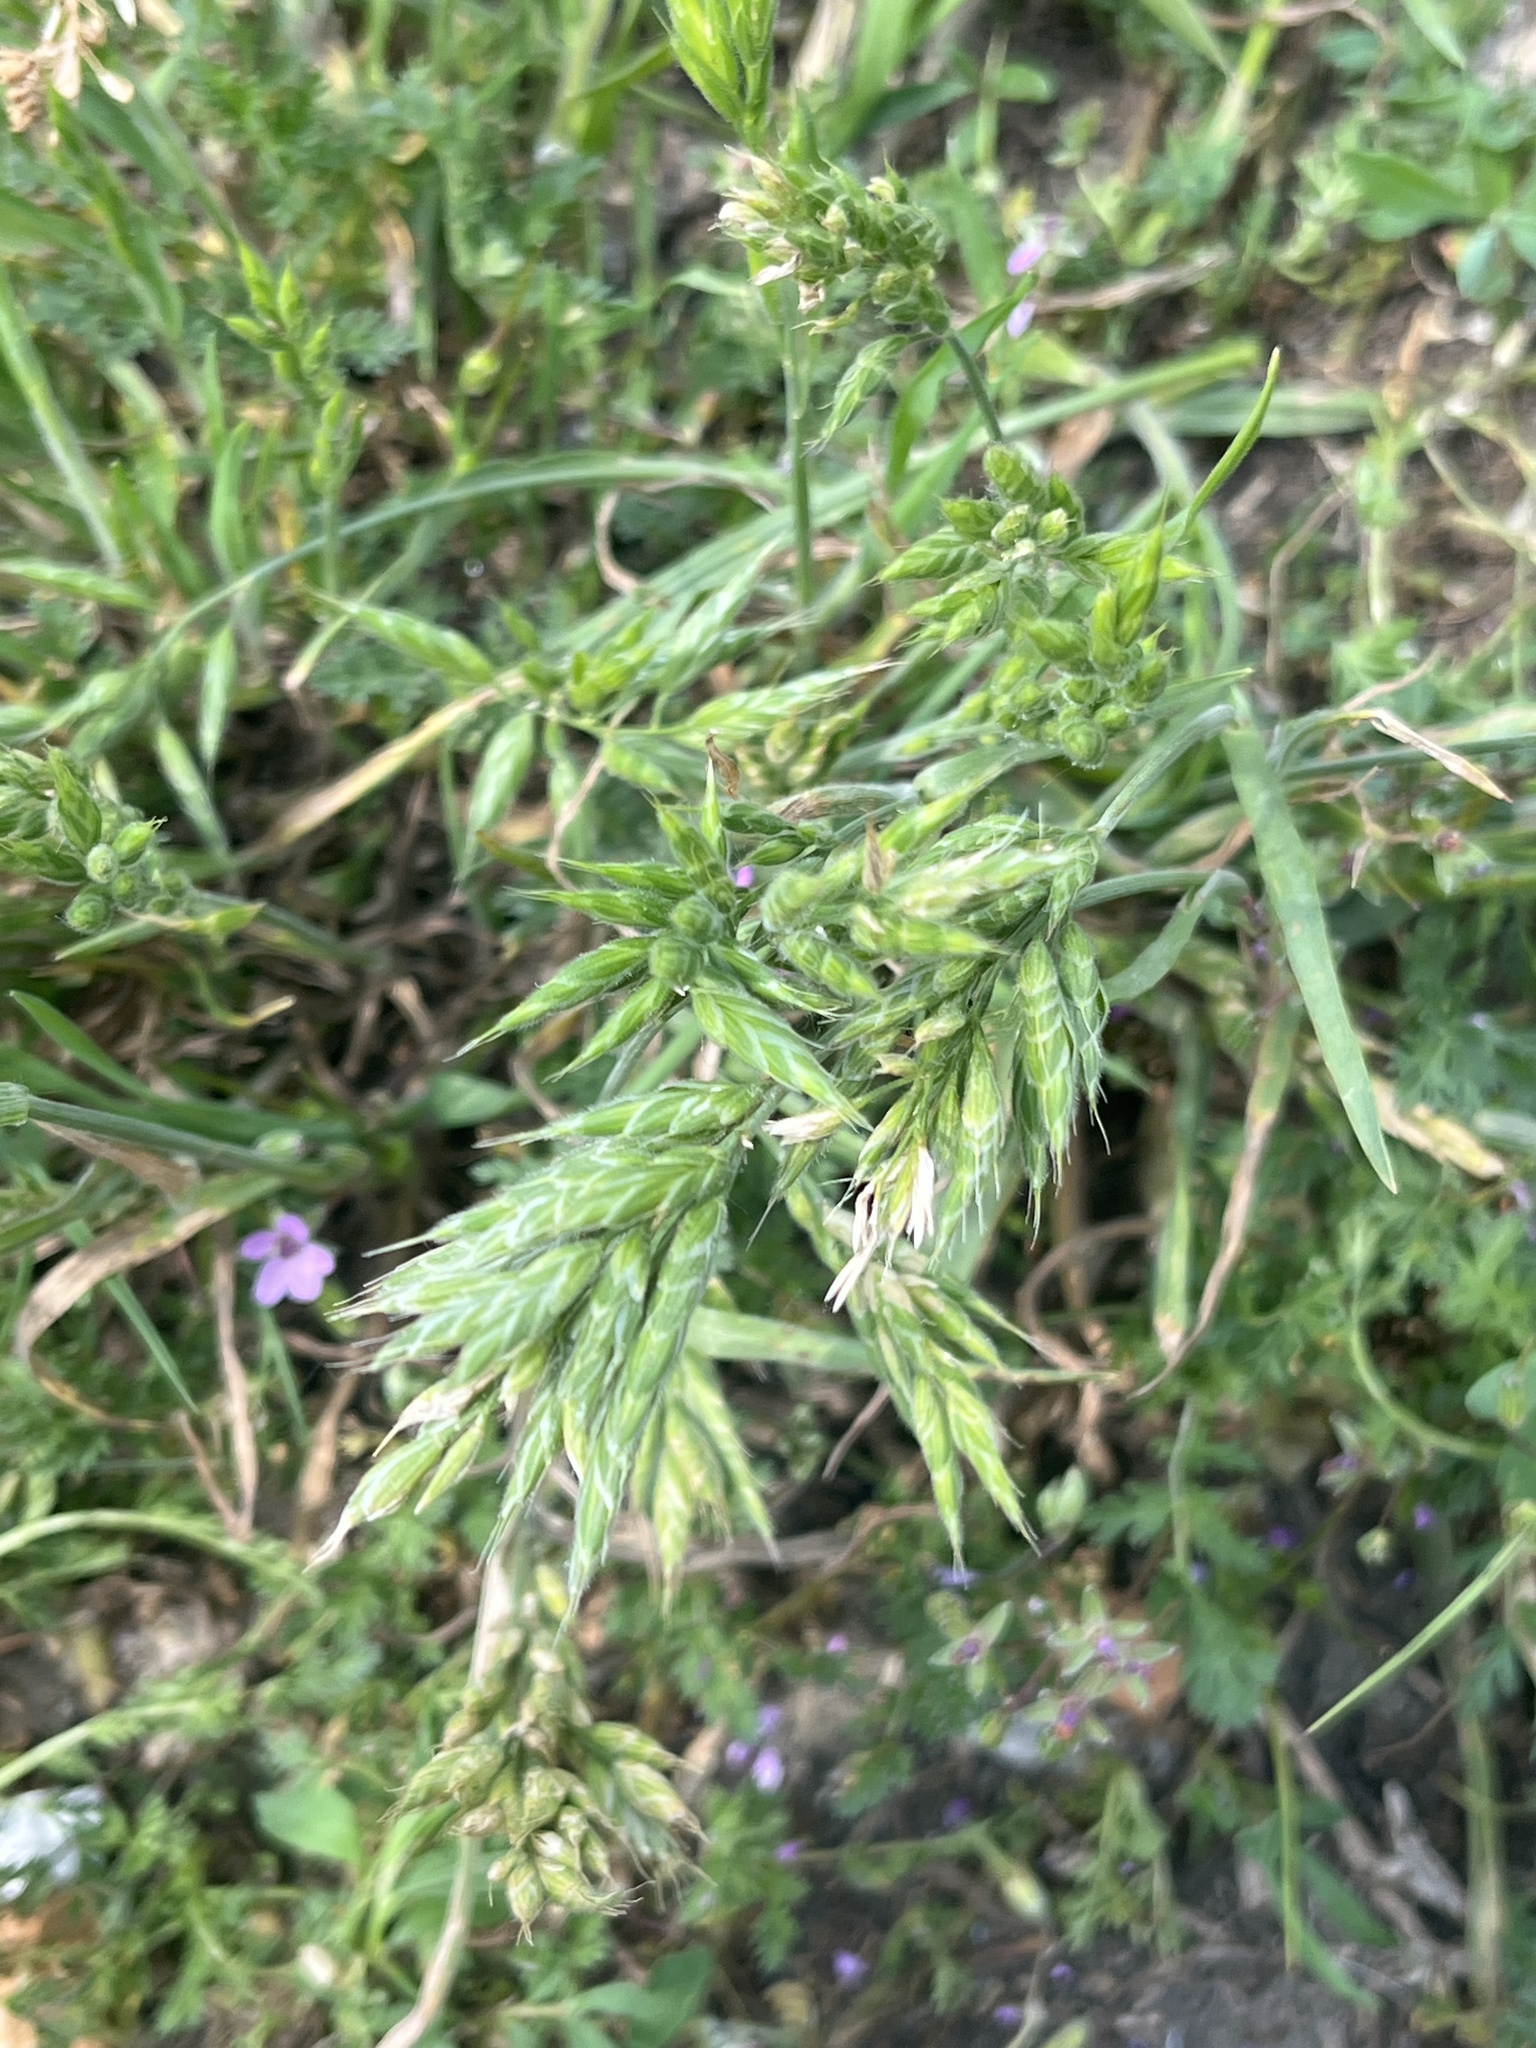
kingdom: Plantae
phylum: Tracheophyta
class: Liliopsida
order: Poales
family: Poaceae
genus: Bromus
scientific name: Bromus hordeaceus
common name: Soft brome
